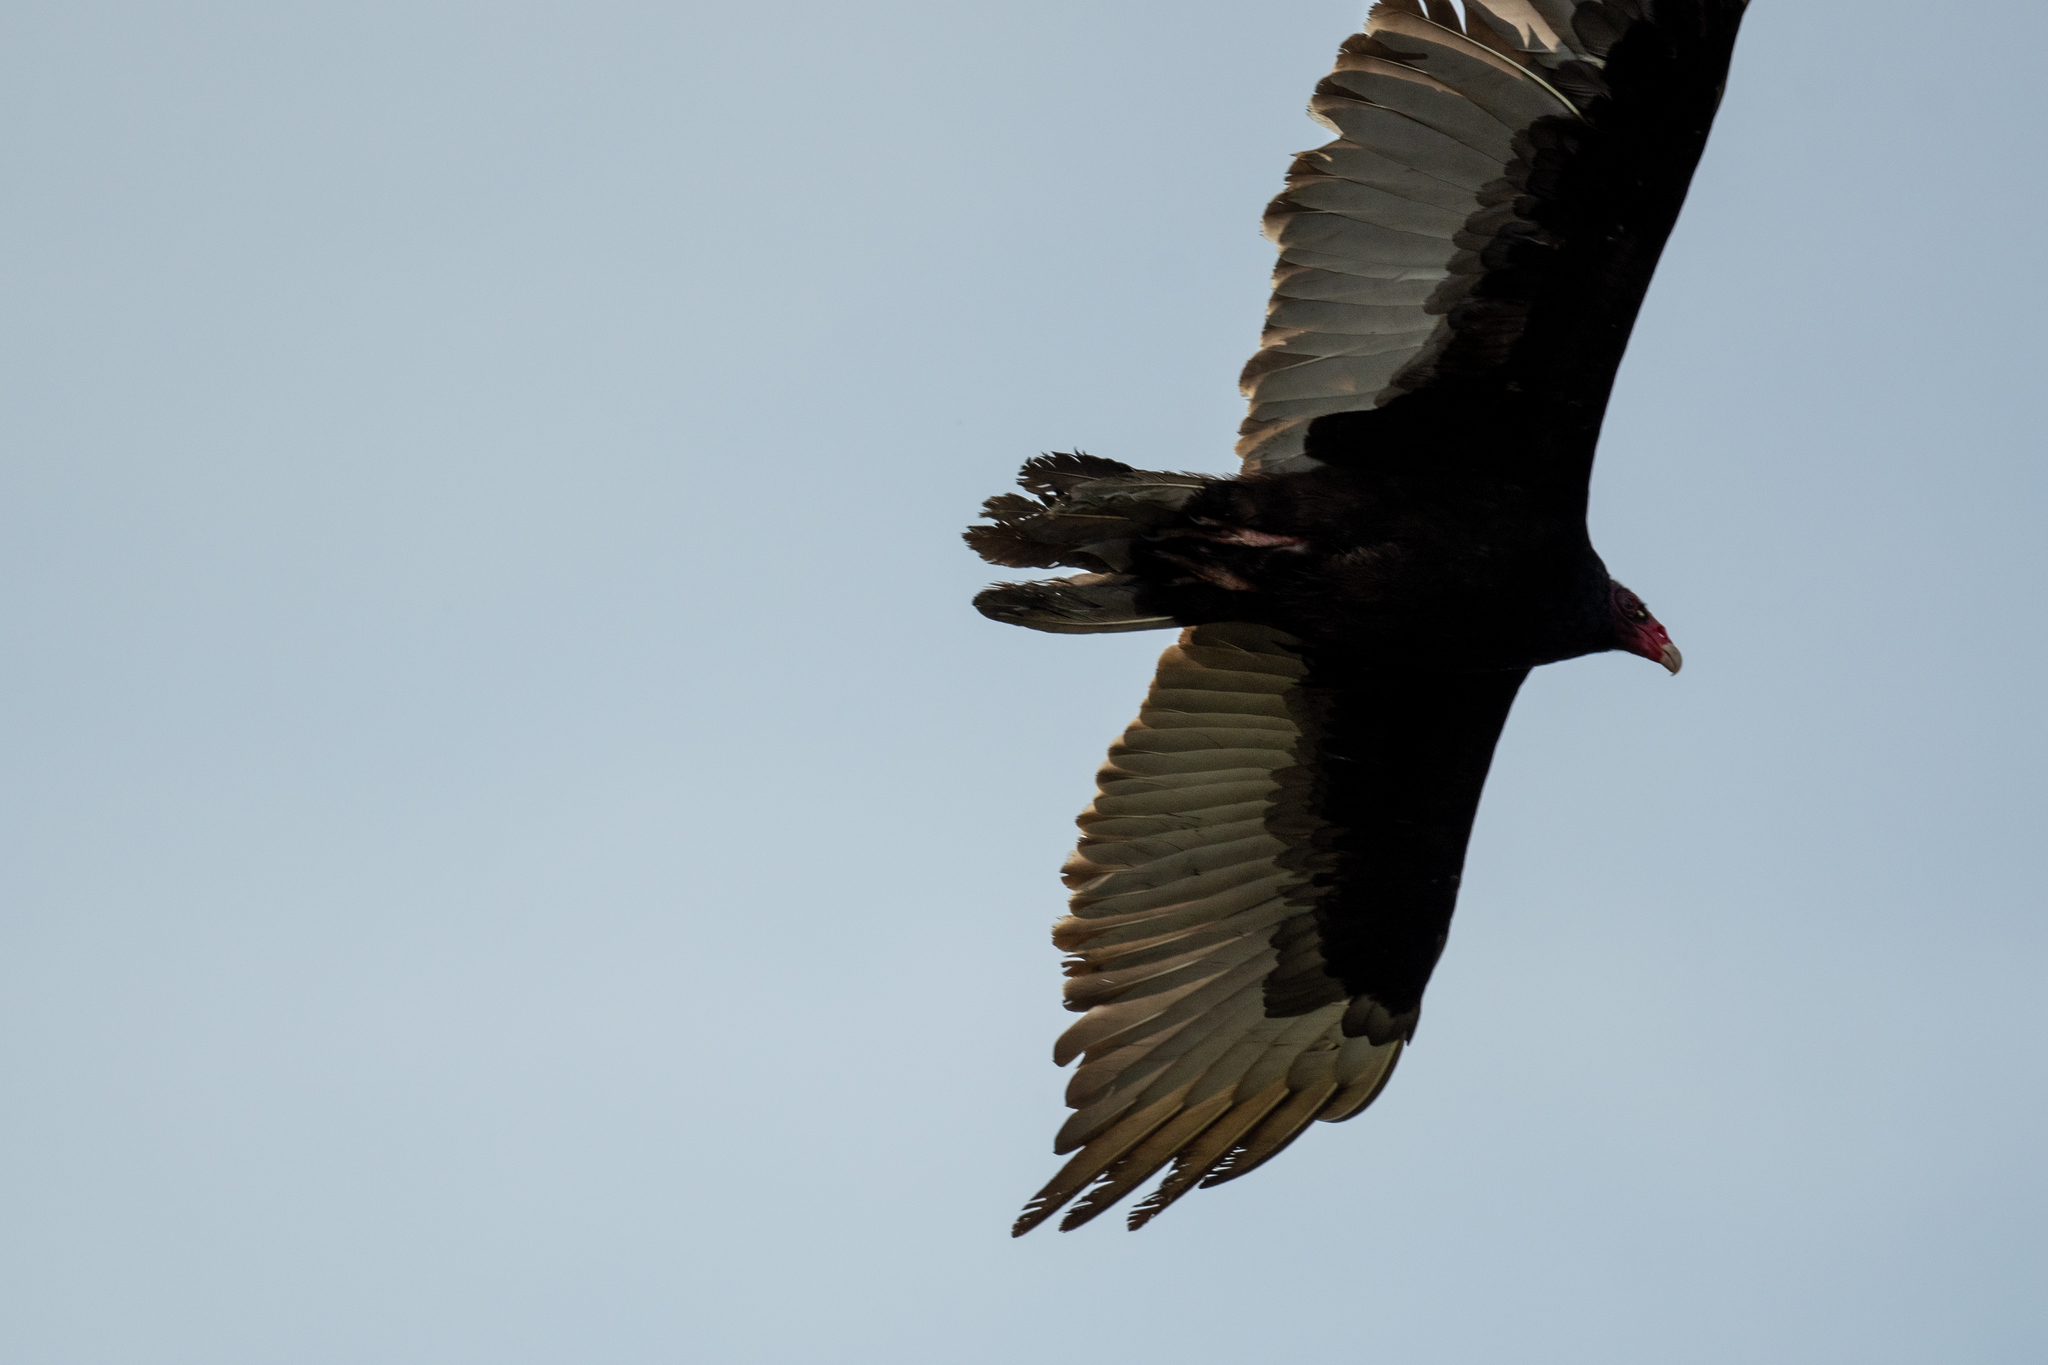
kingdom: Animalia
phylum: Chordata
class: Aves
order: Accipitriformes
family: Cathartidae
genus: Cathartes
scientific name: Cathartes aura
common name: Turkey vulture
